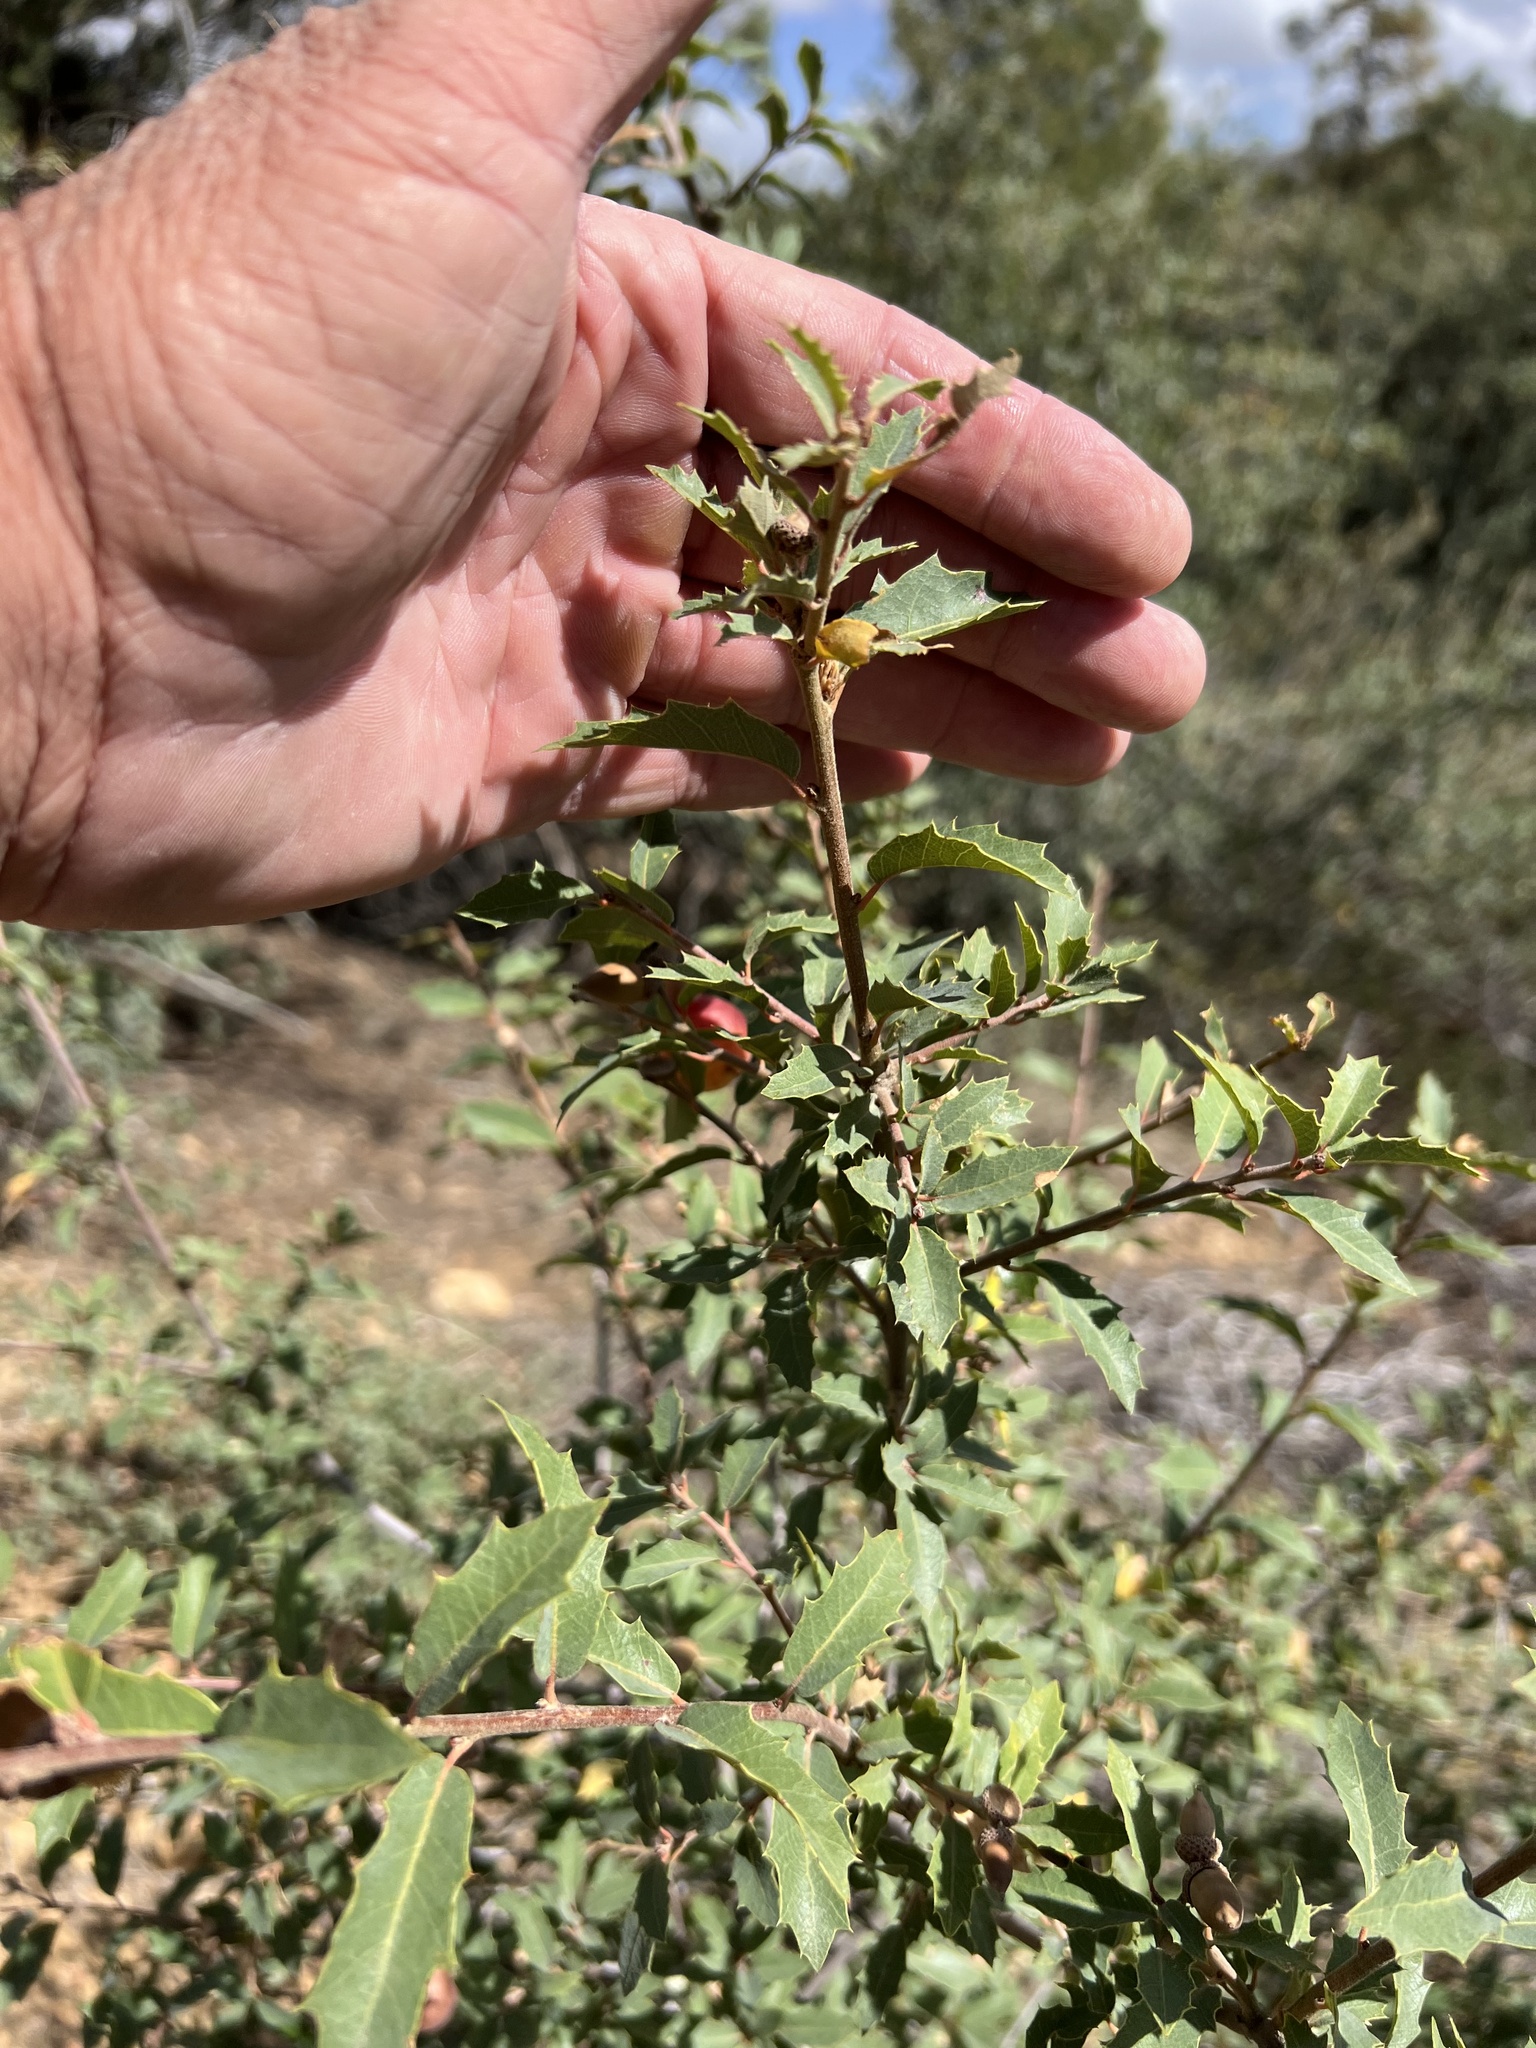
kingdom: Plantae
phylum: Tracheophyta
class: Magnoliopsida
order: Fagales
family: Fagaceae
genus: Quercus
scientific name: Quercus turbinella
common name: Sonoran scrub oak
